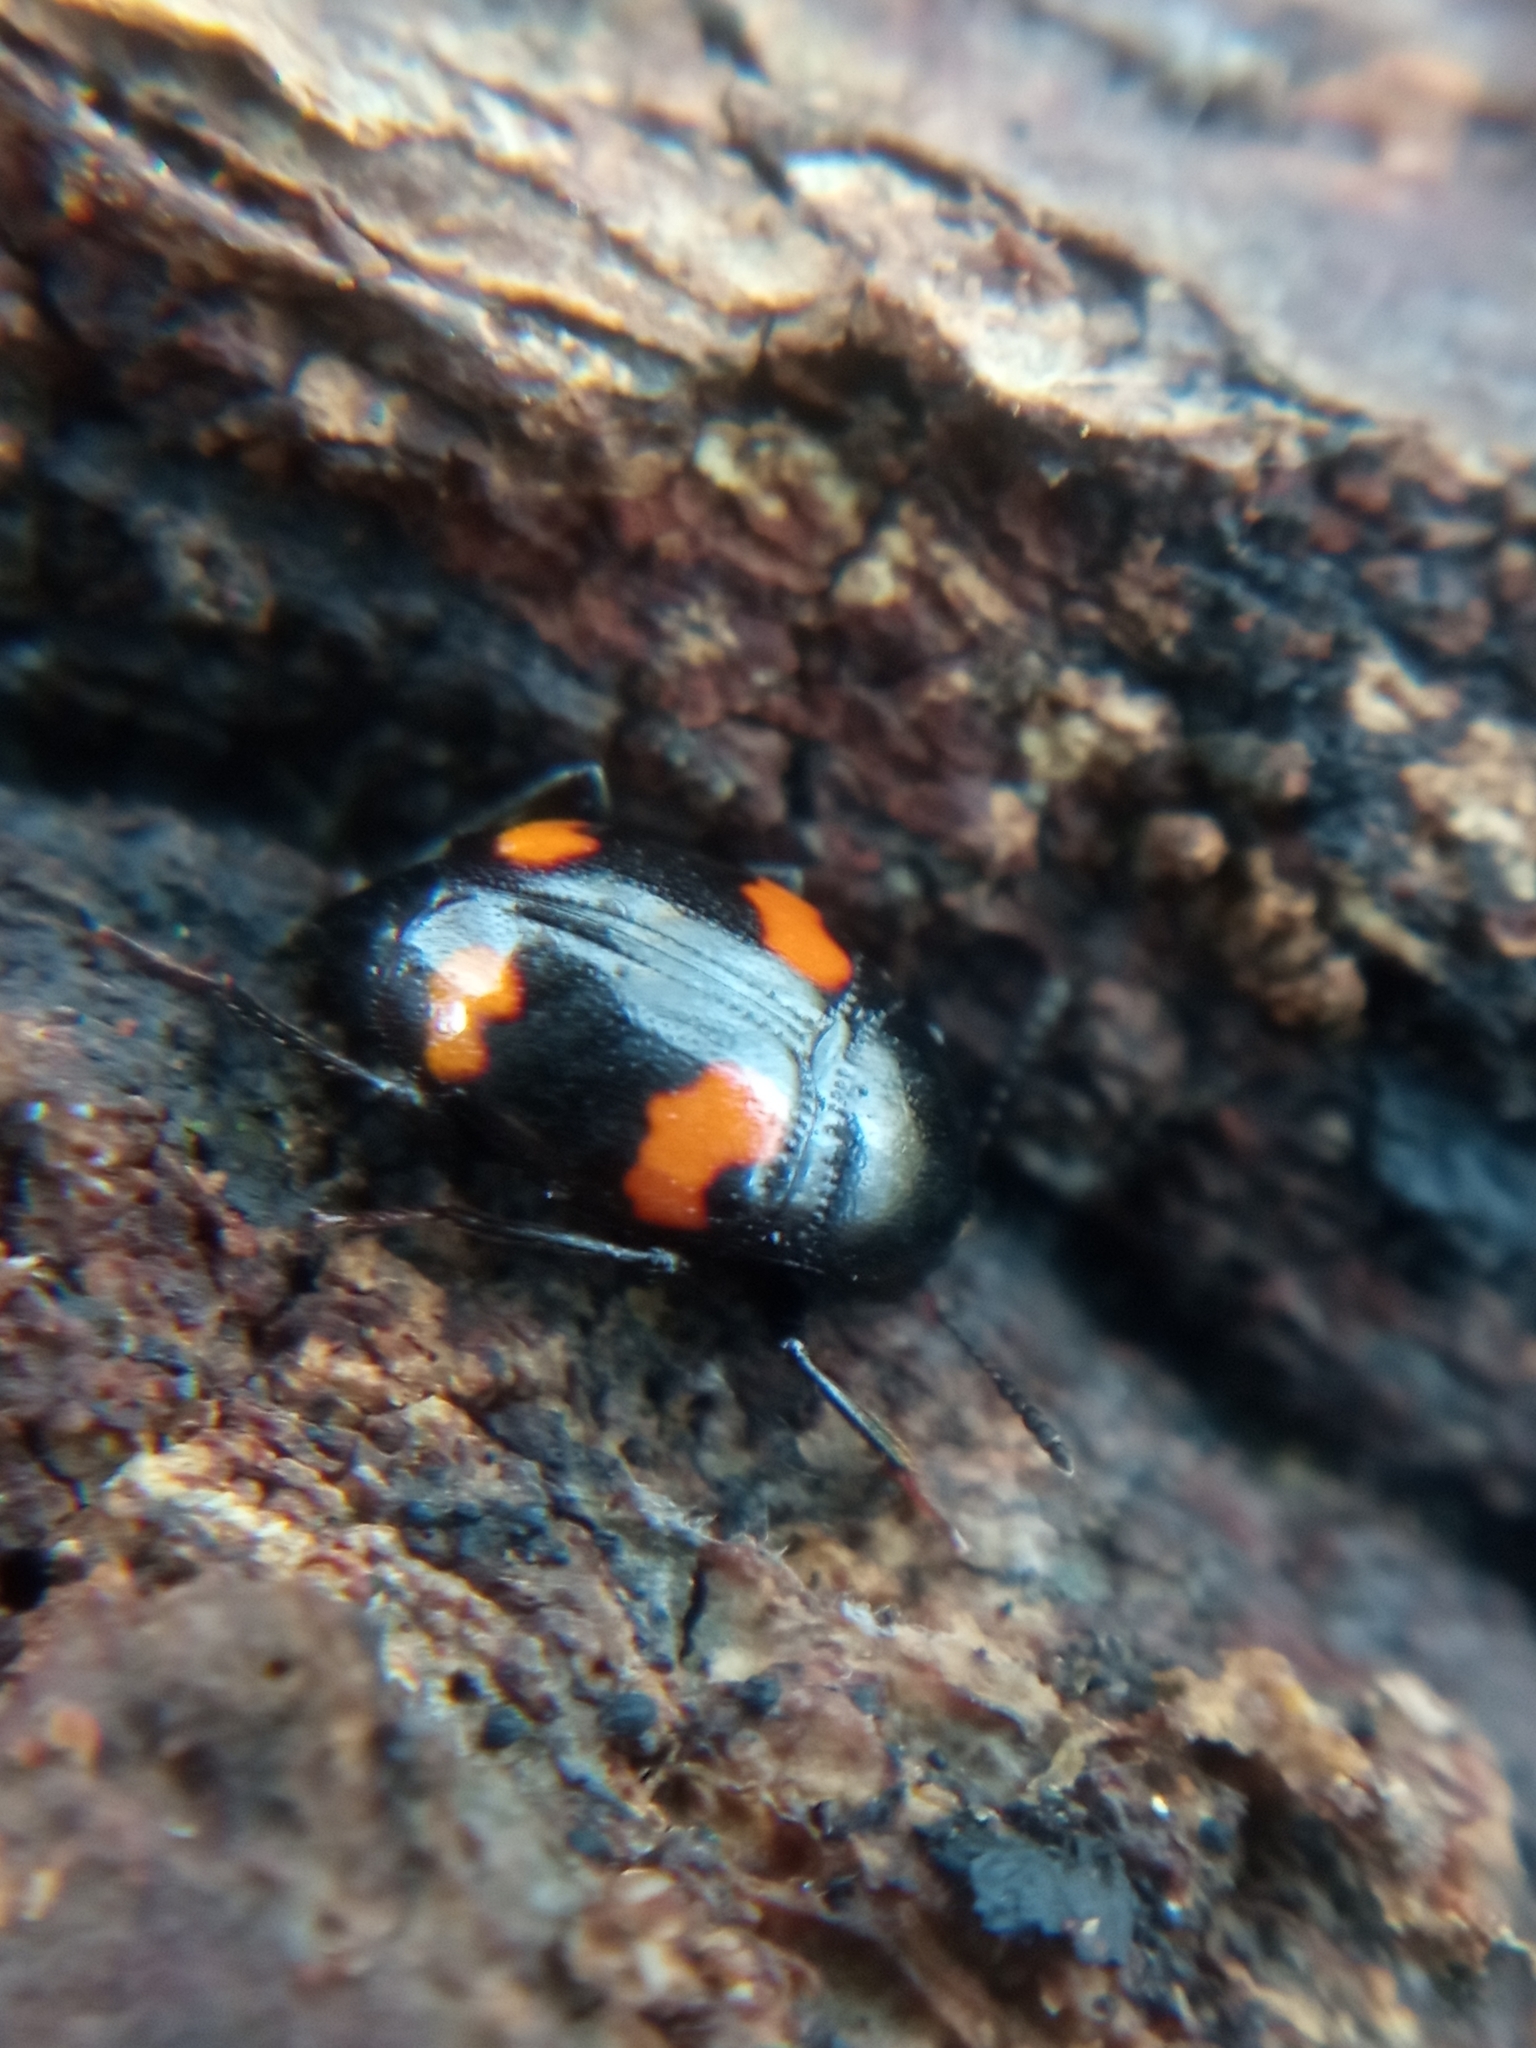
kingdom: Animalia
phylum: Arthropoda
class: Insecta
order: Coleoptera
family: Staphylinidae
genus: Scaphidium
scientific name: Scaphidium quadrimaculatum
